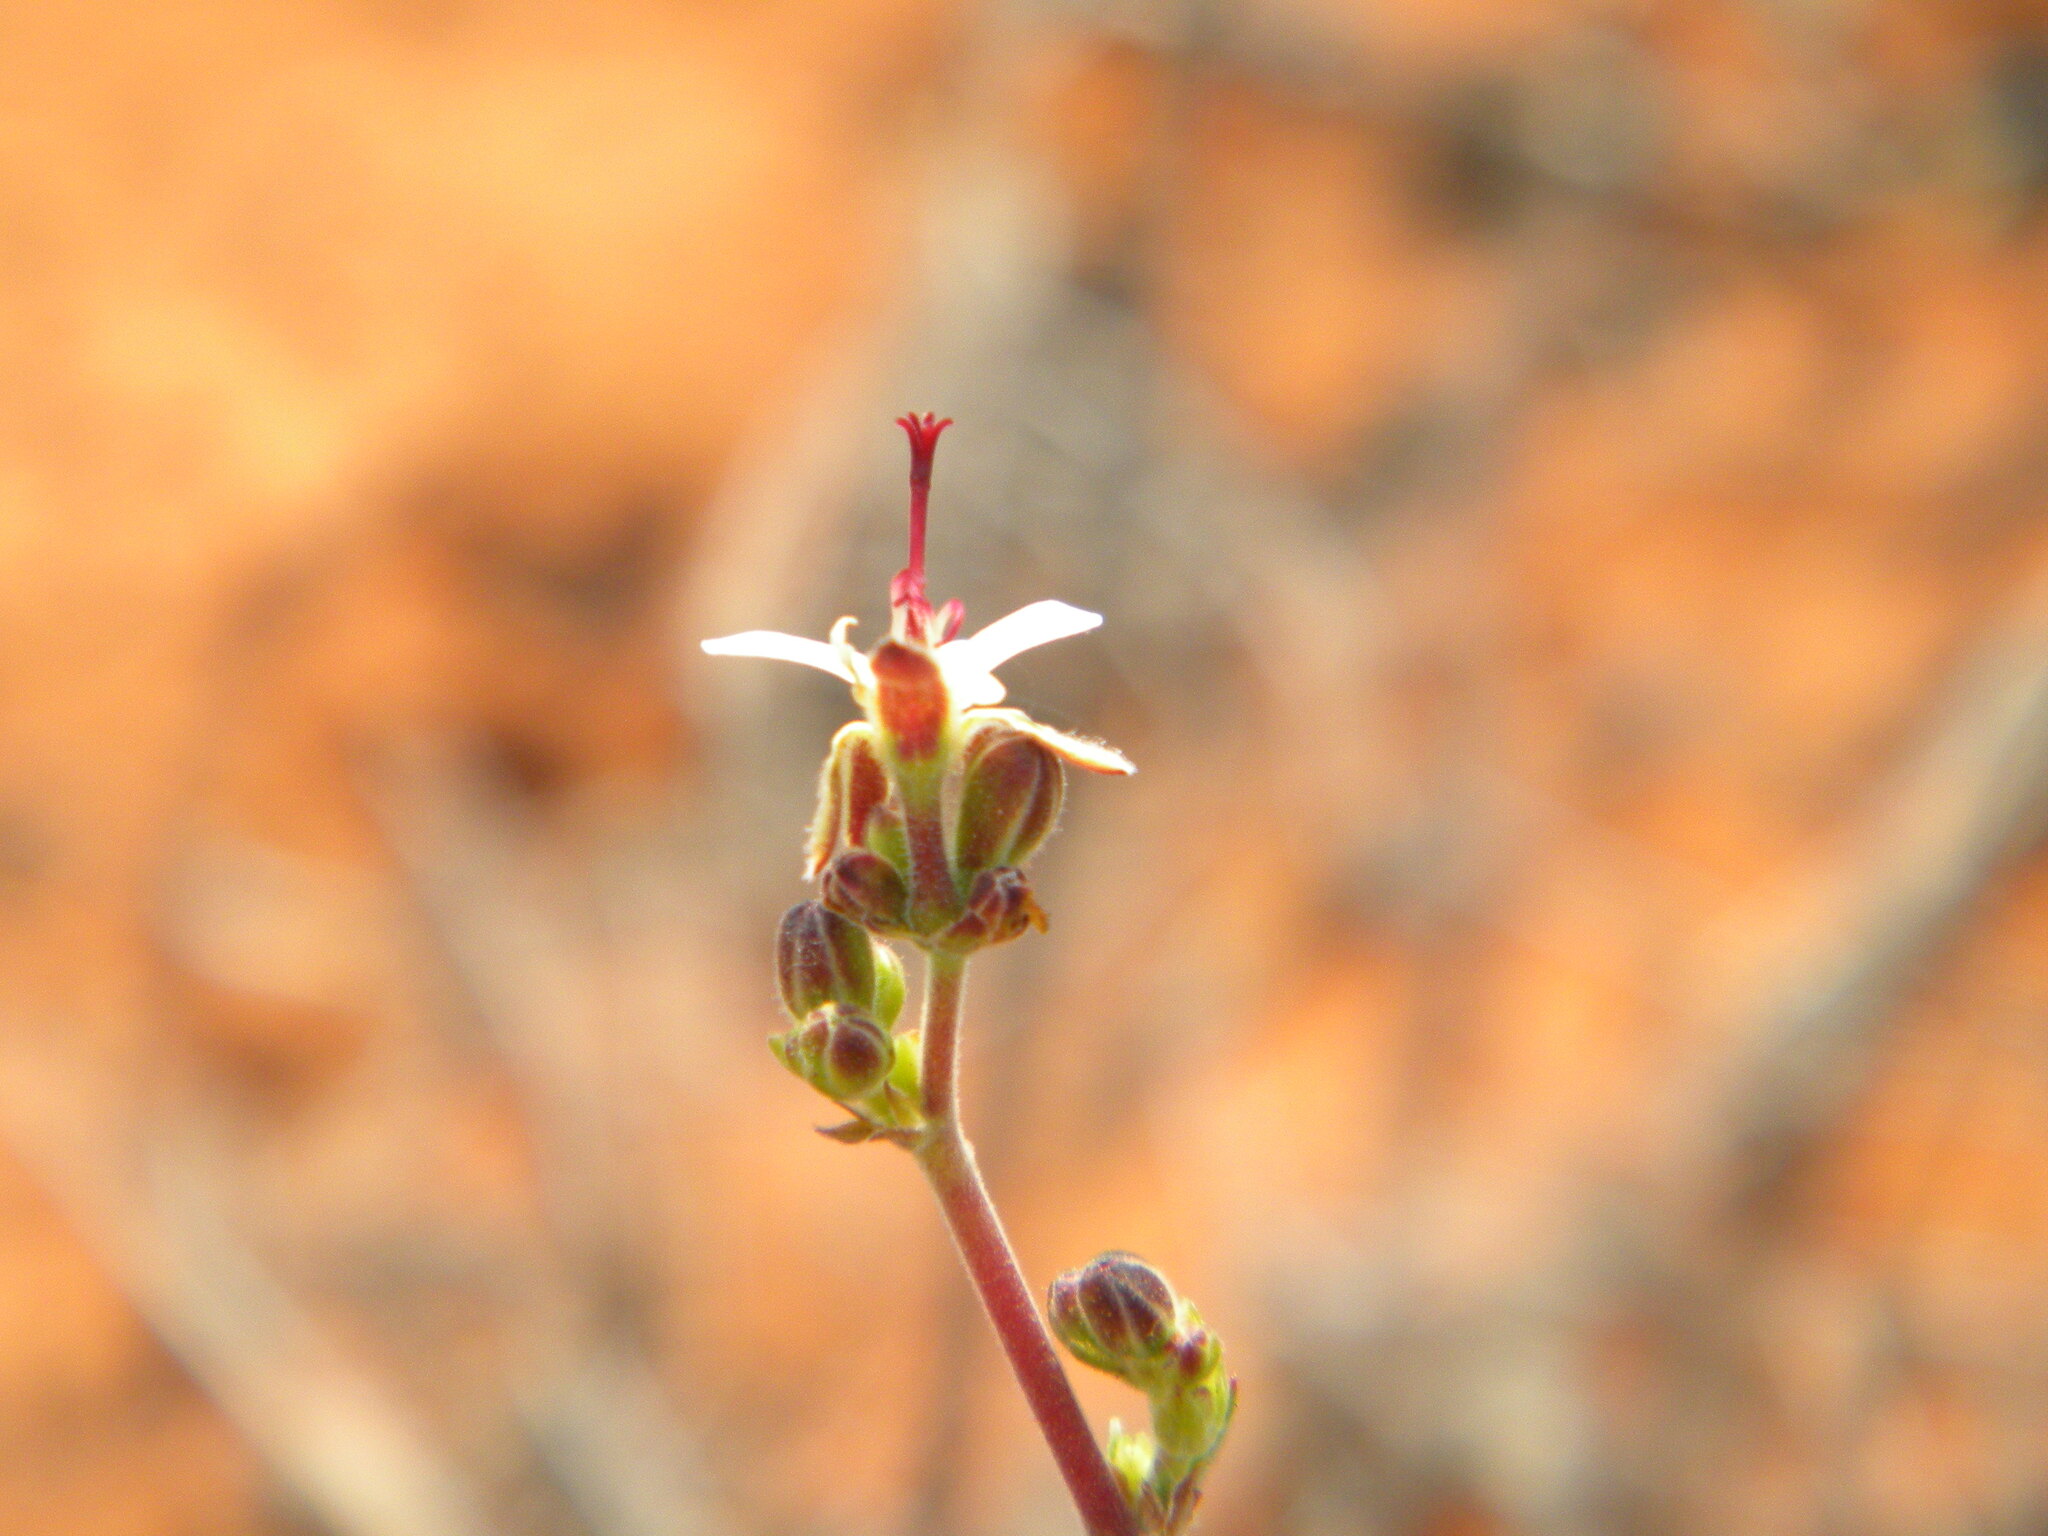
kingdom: Plantae
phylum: Tracheophyta
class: Magnoliopsida
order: Geraniales
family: Geraniaceae
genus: Pelargonium
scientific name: Pelargonium carnosum
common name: Fleshy-stalk pelargonium
